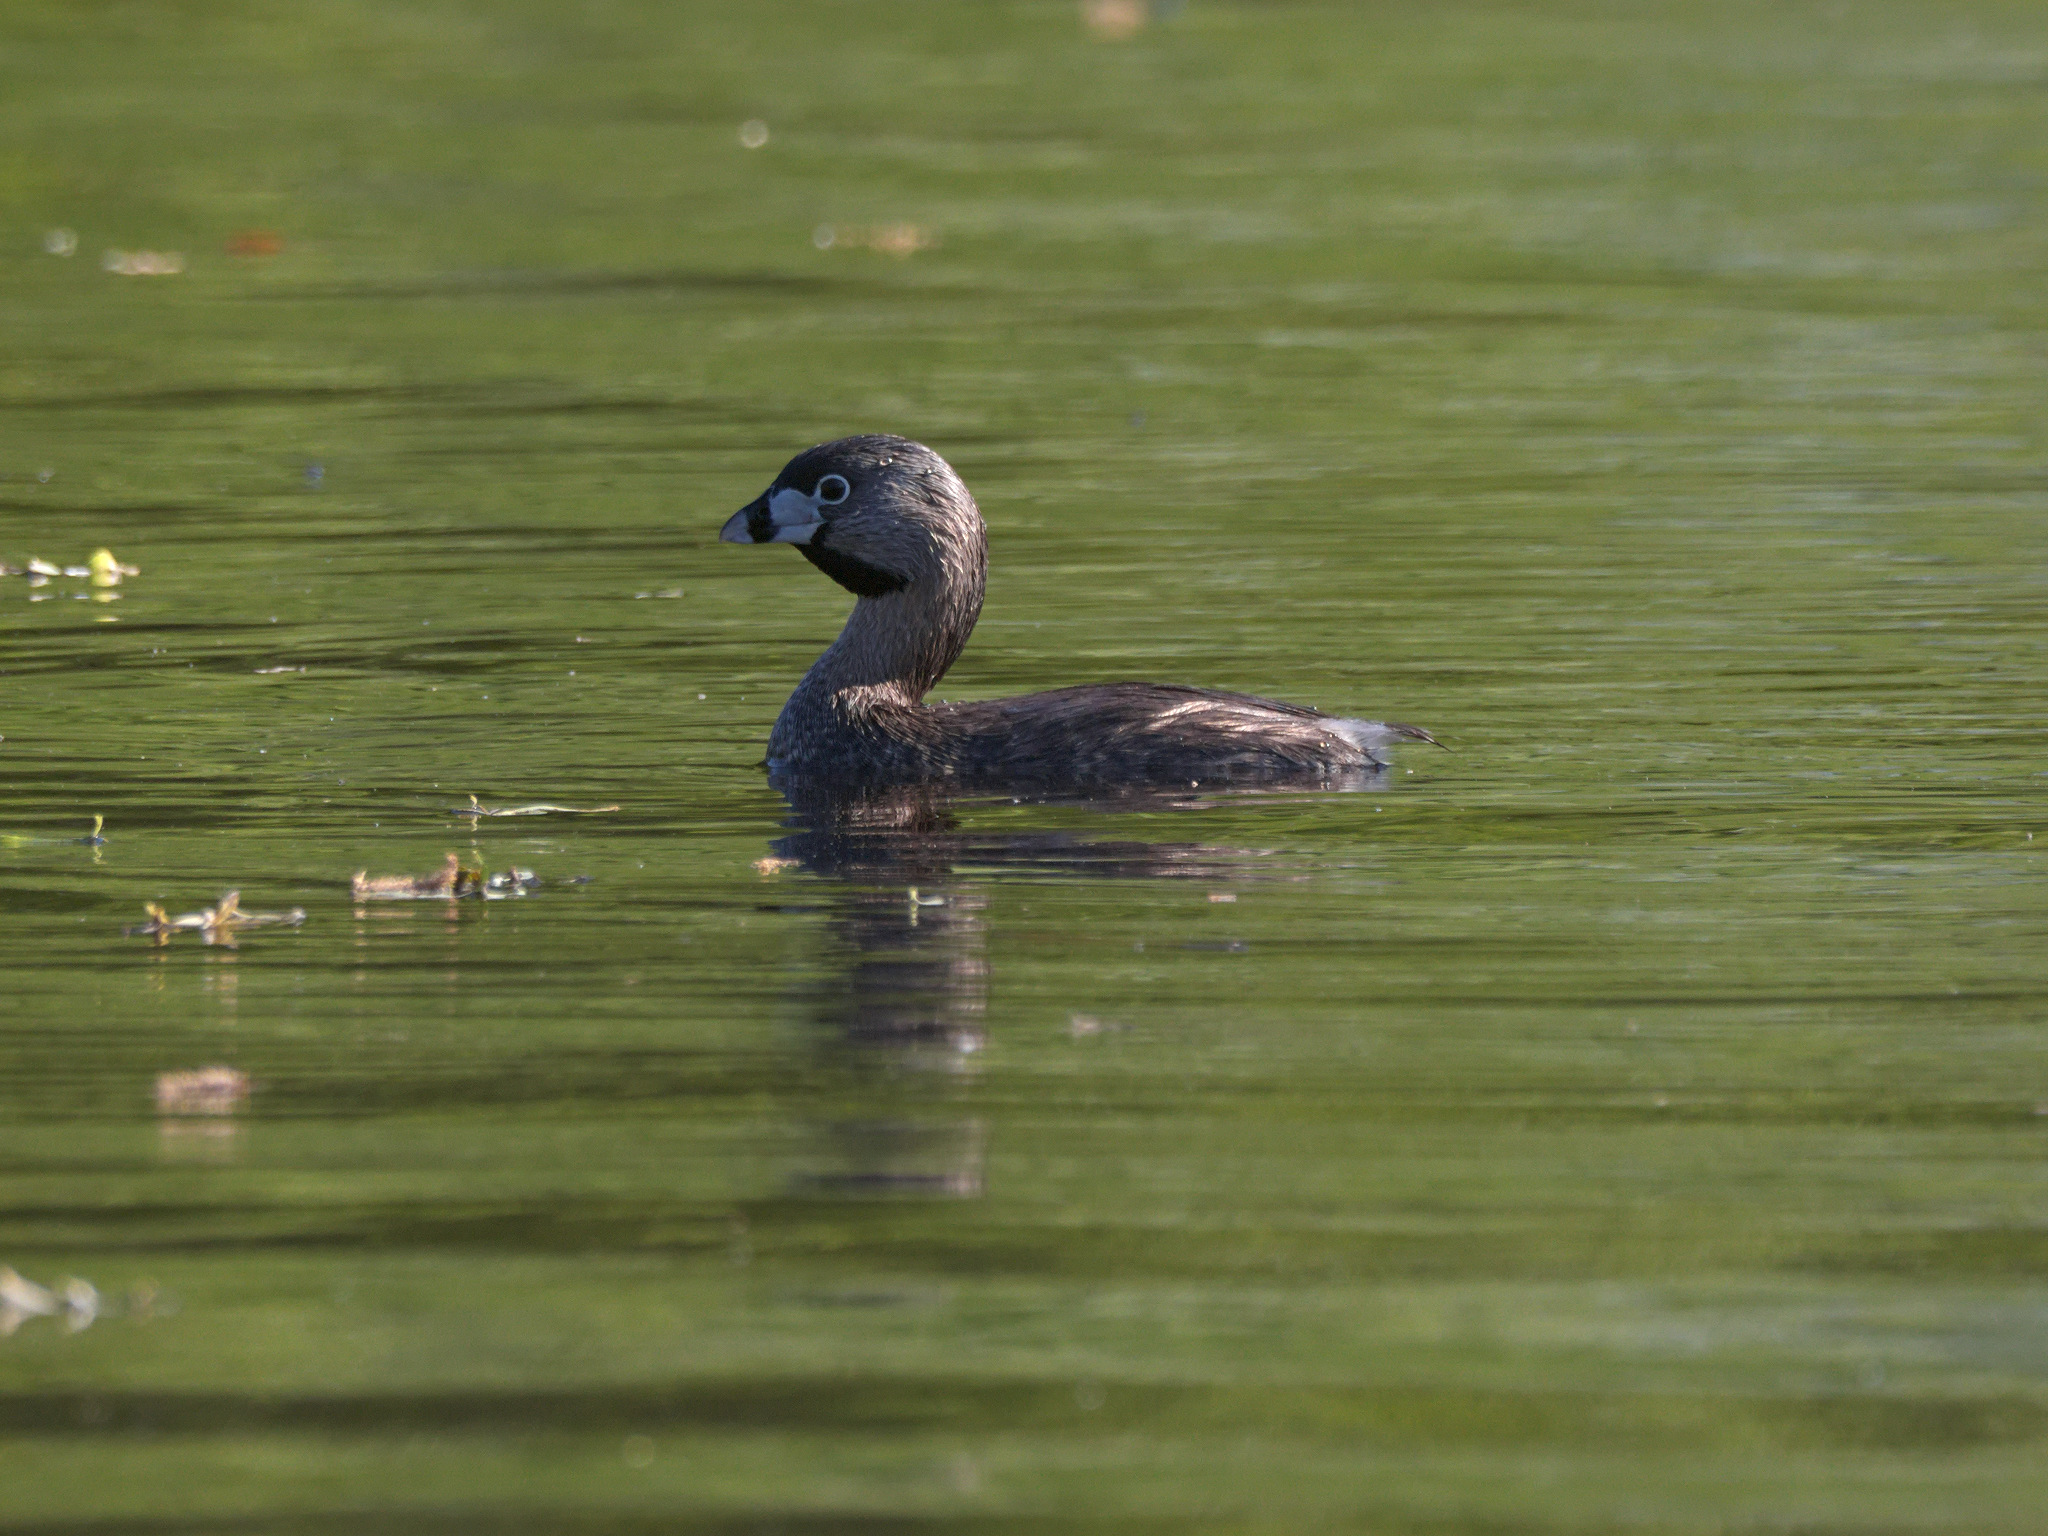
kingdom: Animalia
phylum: Chordata
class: Aves
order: Podicipediformes
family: Podicipedidae
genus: Podilymbus
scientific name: Podilymbus podiceps
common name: Pied-billed grebe
